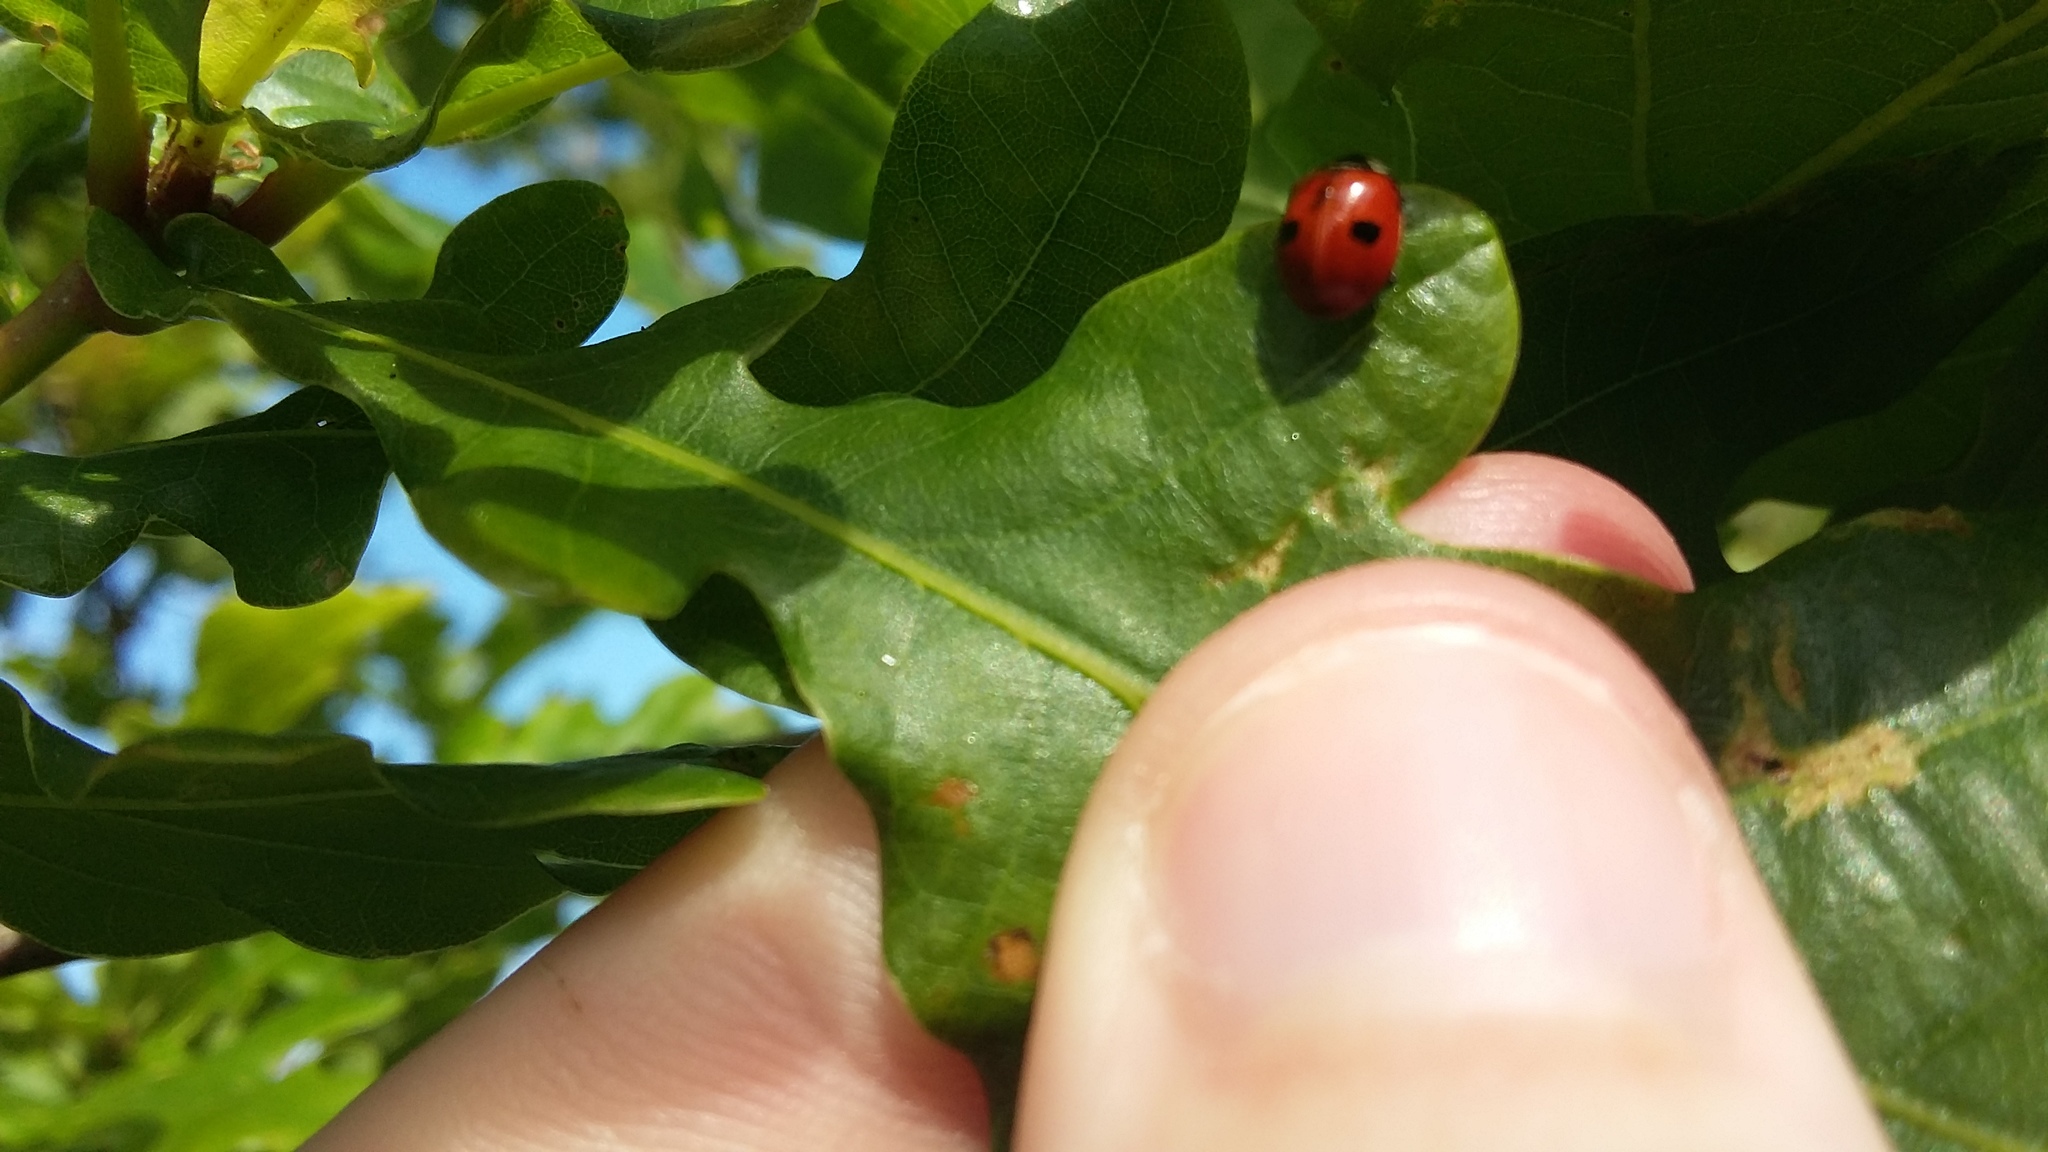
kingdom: Animalia
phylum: Arthropoda
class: Insecta
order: Coleoptera
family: Coccinellidae
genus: Adalia
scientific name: Adalia bipunctata
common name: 2-spot ladybird
